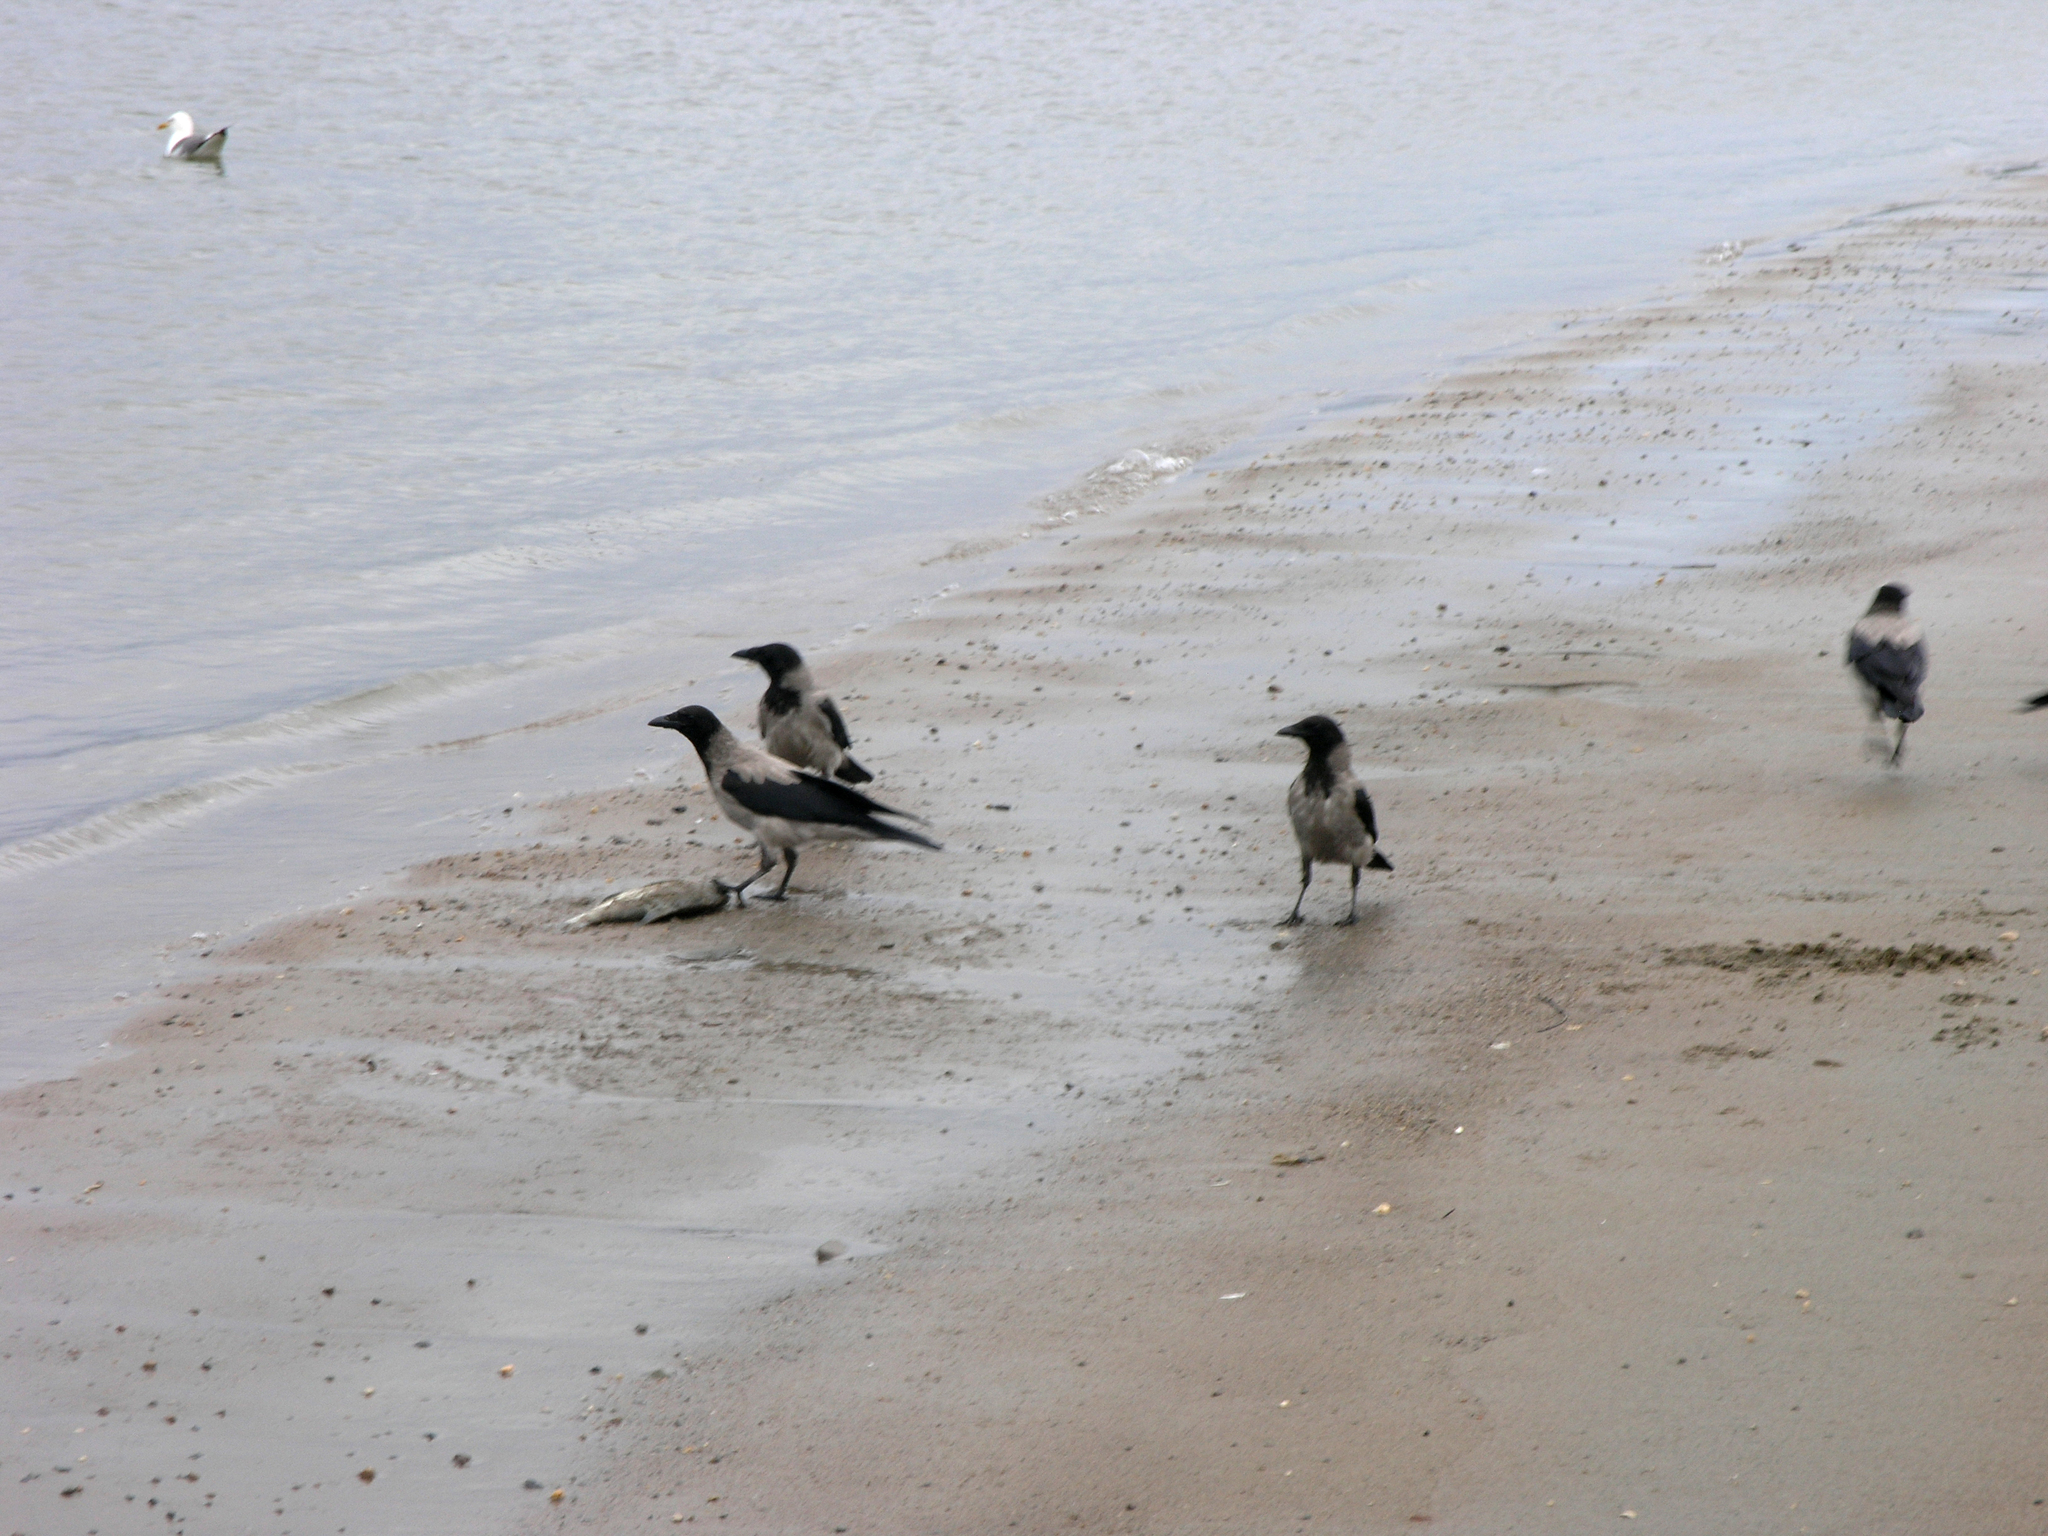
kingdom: Animalia
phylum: Chordata
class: Aves
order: Passeriformes
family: Corvidae
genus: Corvus
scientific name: Corvus cornix
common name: Hooded crow
